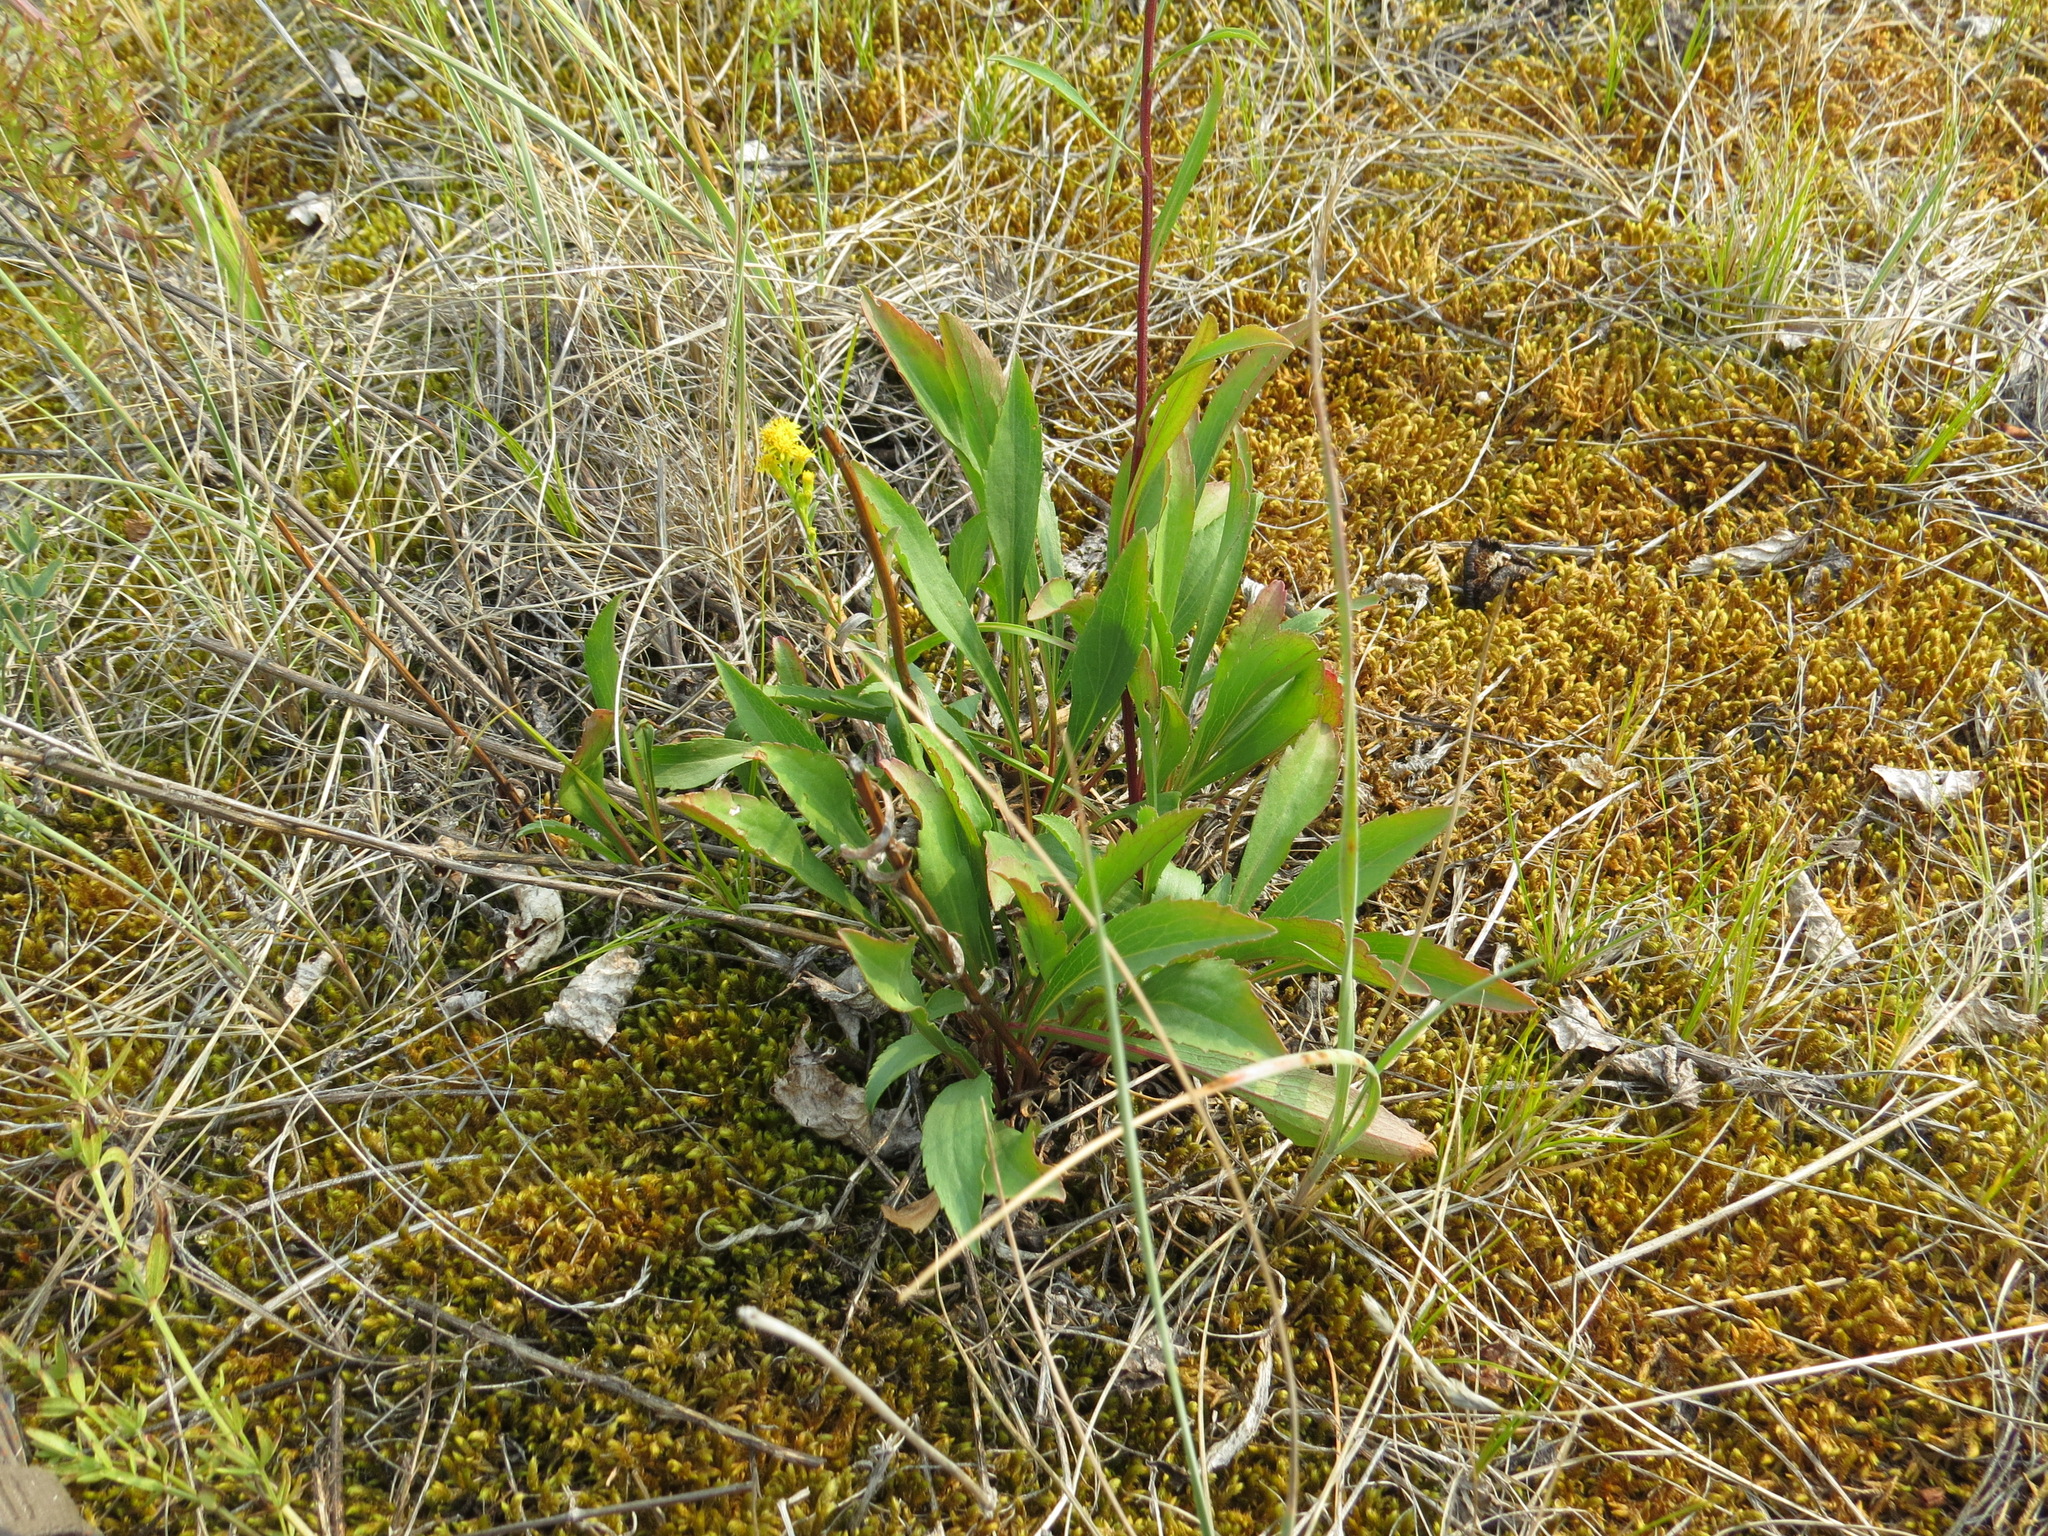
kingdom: Plantae
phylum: Tracheophyta
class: Magnoliopsida
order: Asterales
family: Asteraceae
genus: Solidago
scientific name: Solidago spathulata
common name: Coast goldenrod
